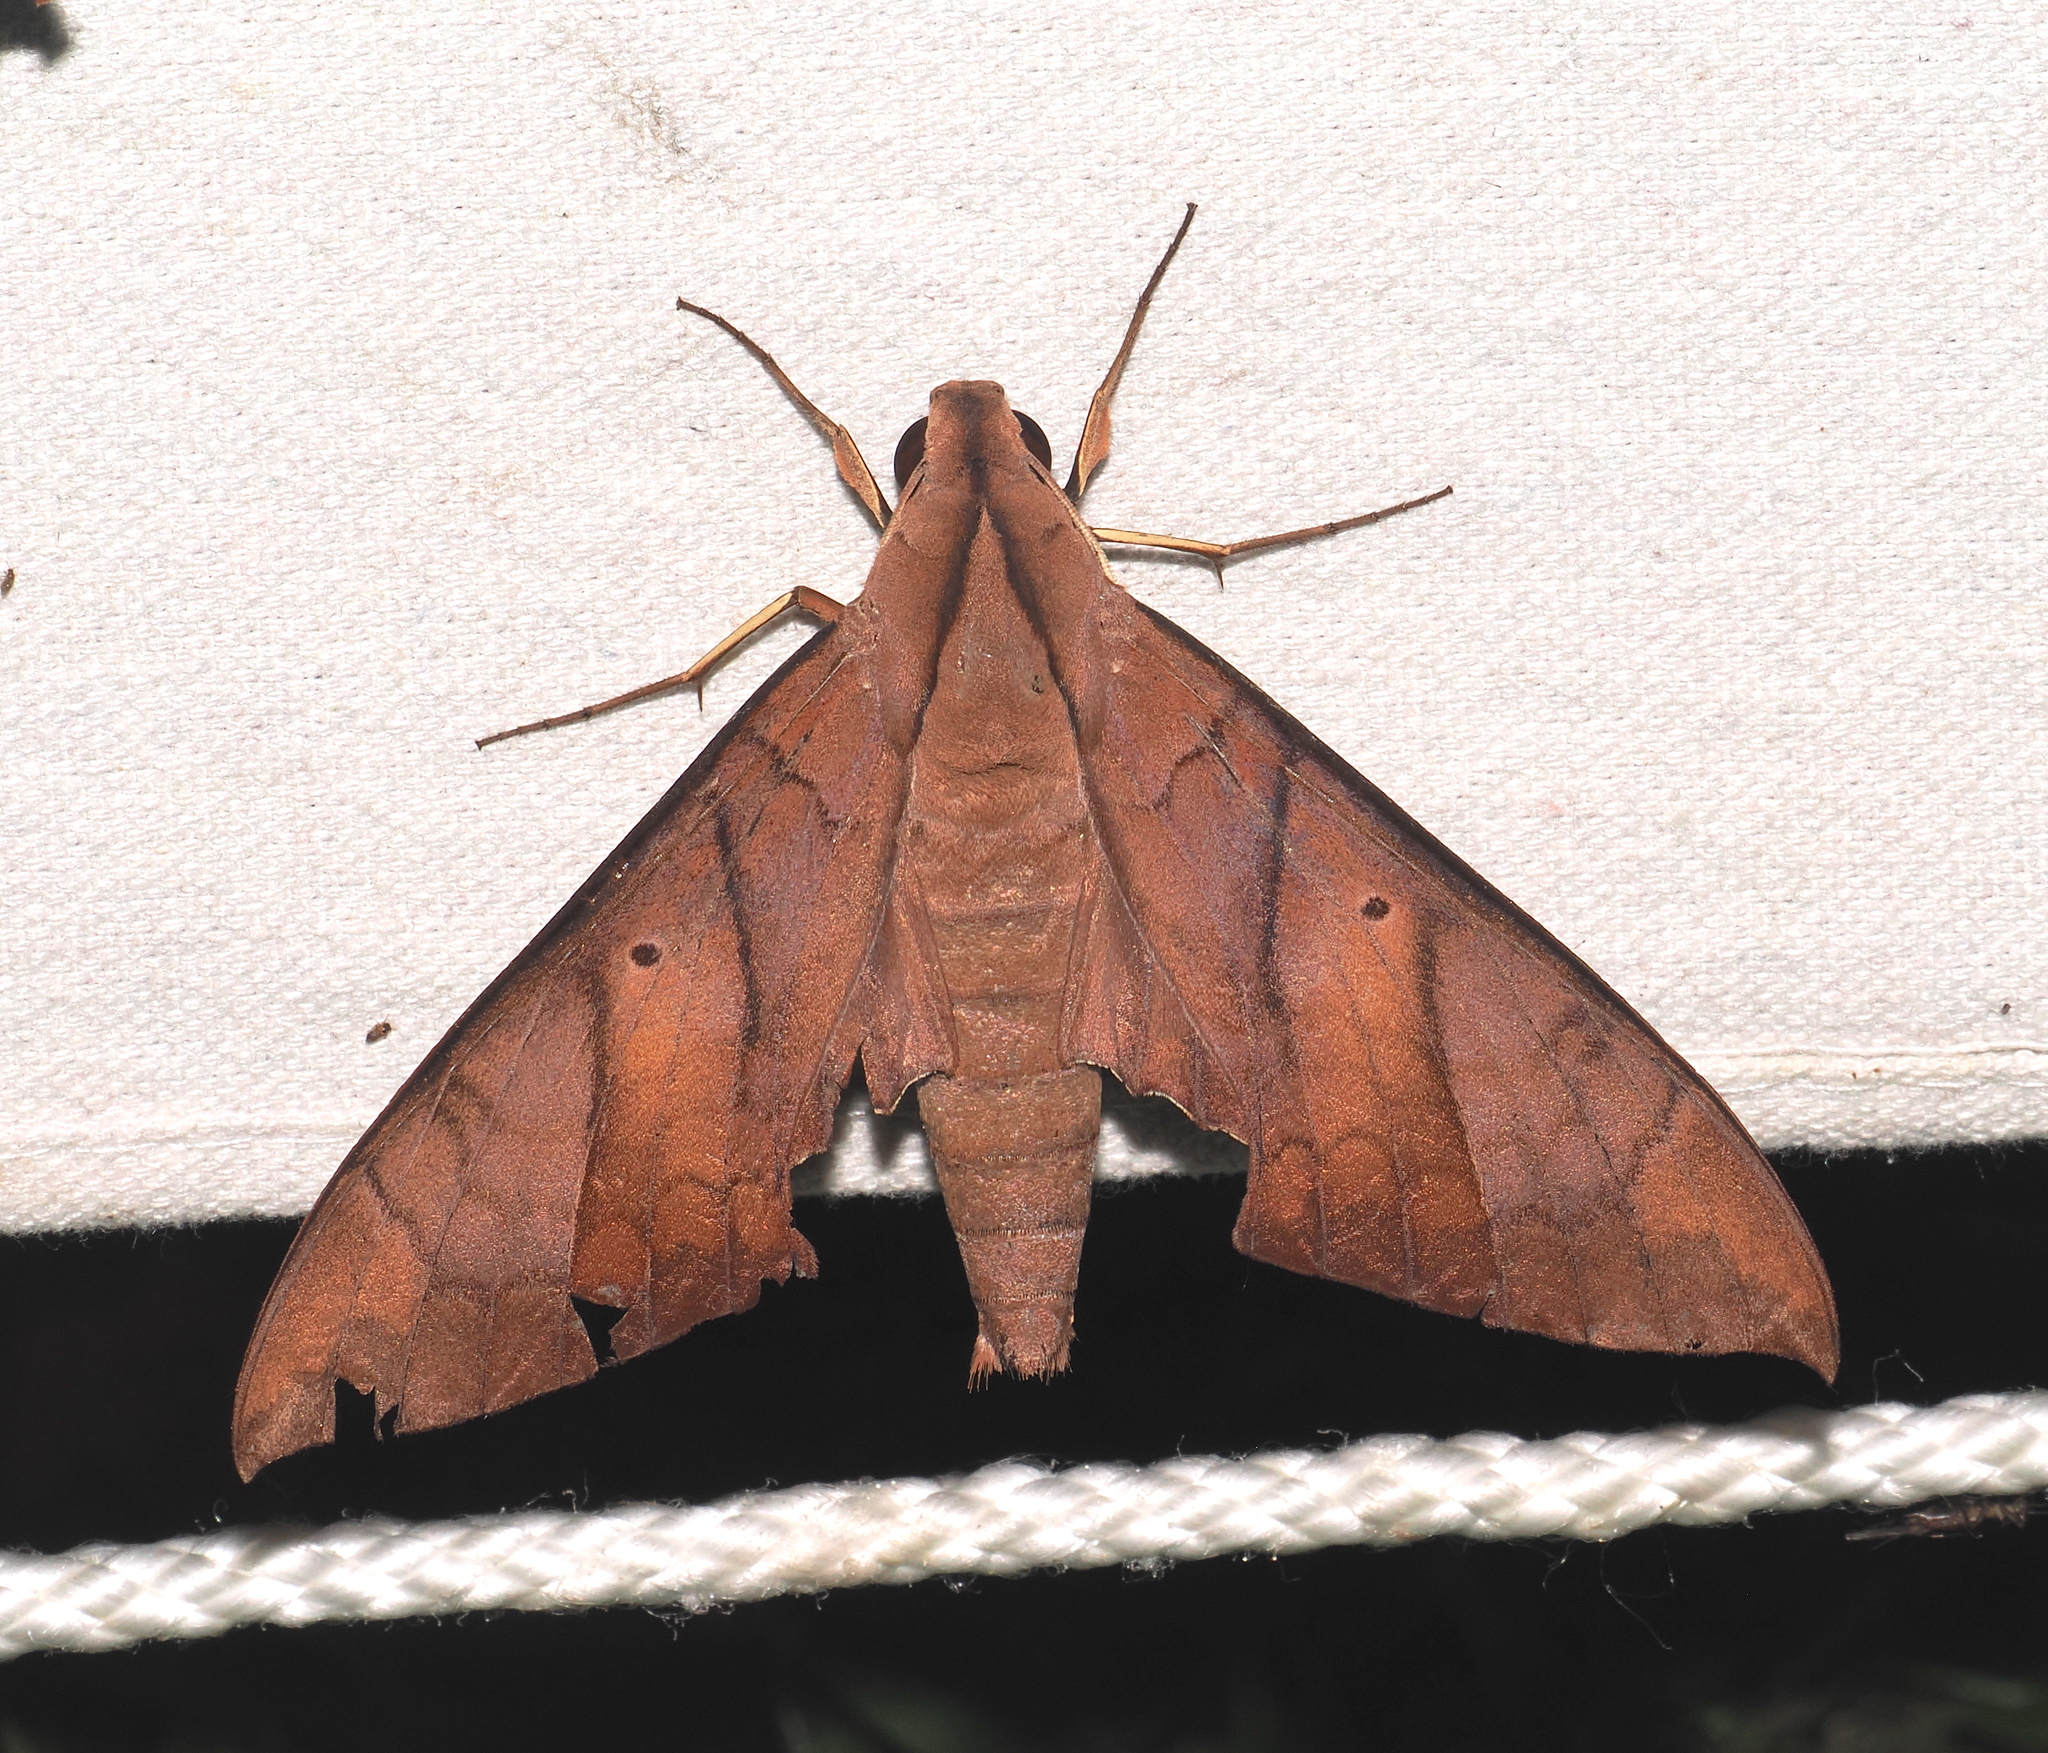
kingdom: Animalia
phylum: Arthropoda
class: Insecta
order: Lepidoptera
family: Sphingidae
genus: Pachylia
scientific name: Pachylia darceta
